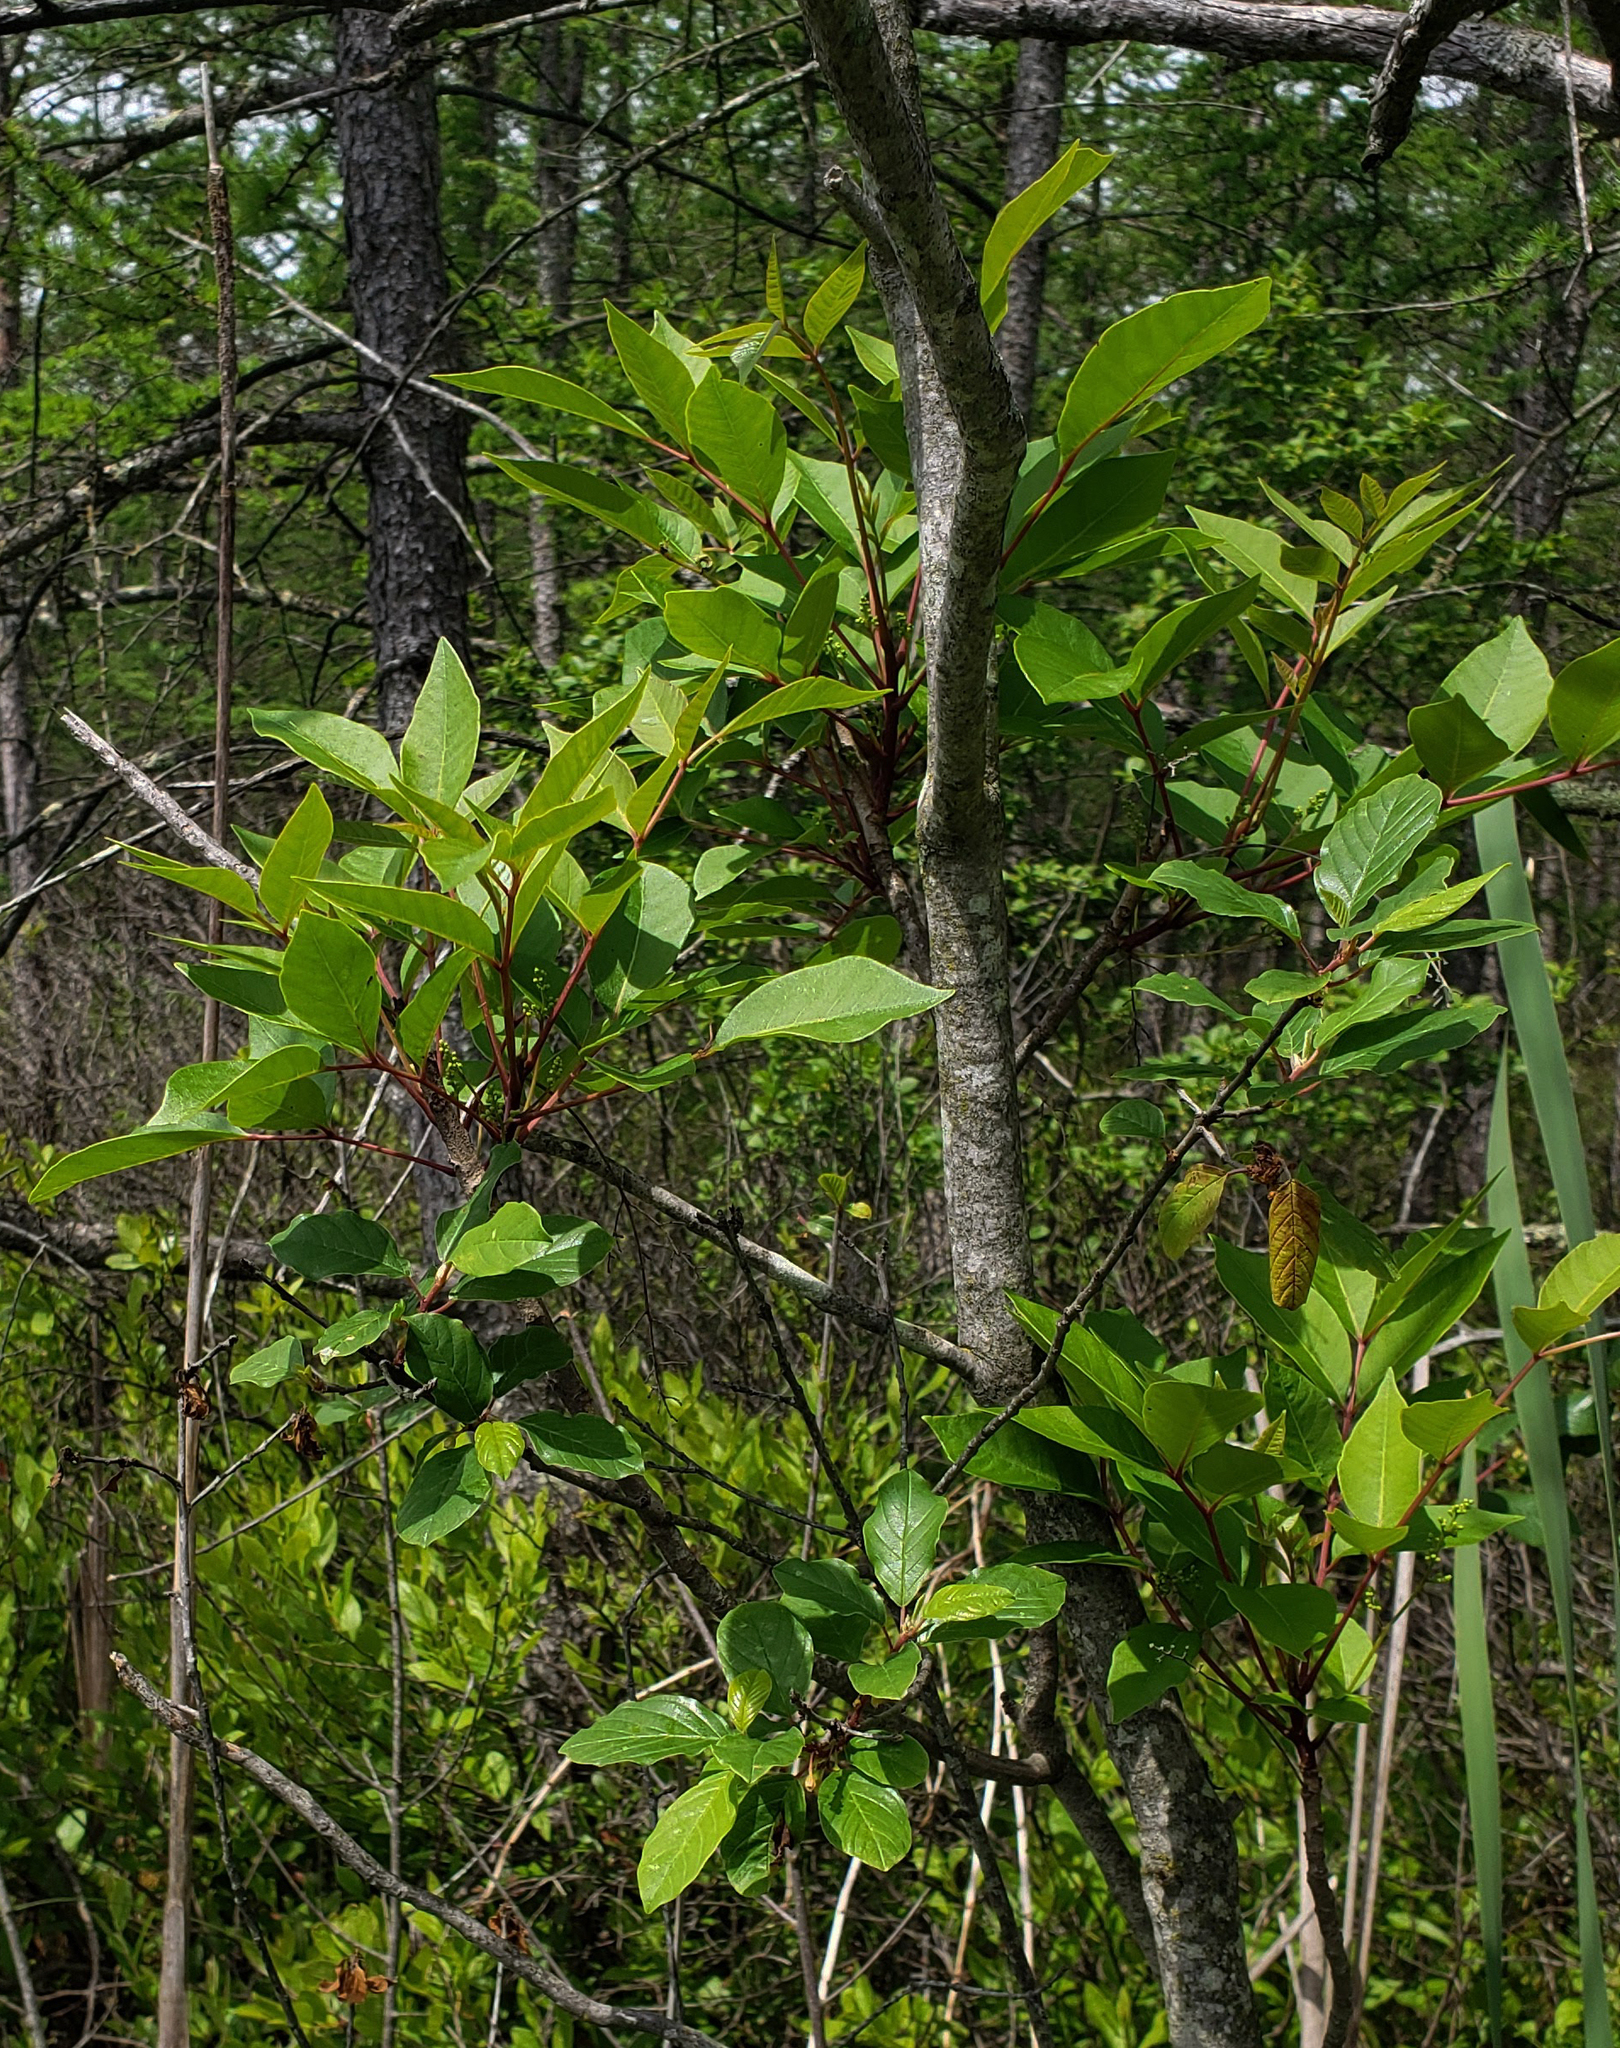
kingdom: Plantae
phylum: Tracheophyta
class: Magnoliopsida
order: Sapindales
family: Anacardiaceae
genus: Toxicodendron
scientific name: Toxicodendron vernix
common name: Poison sumac
